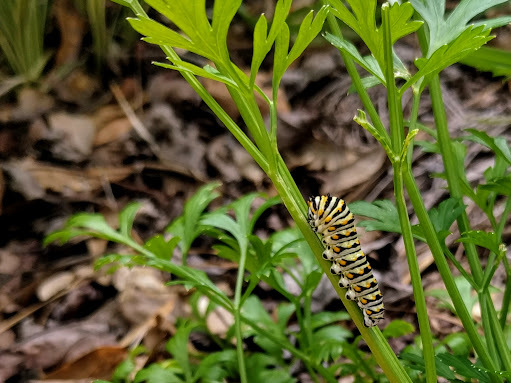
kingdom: Animalia
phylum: Arthropoda
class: Insecta
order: Lepidoptera
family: Papilionidae
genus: Papilio
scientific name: Papilio polyxenes
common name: Black swallowtail
